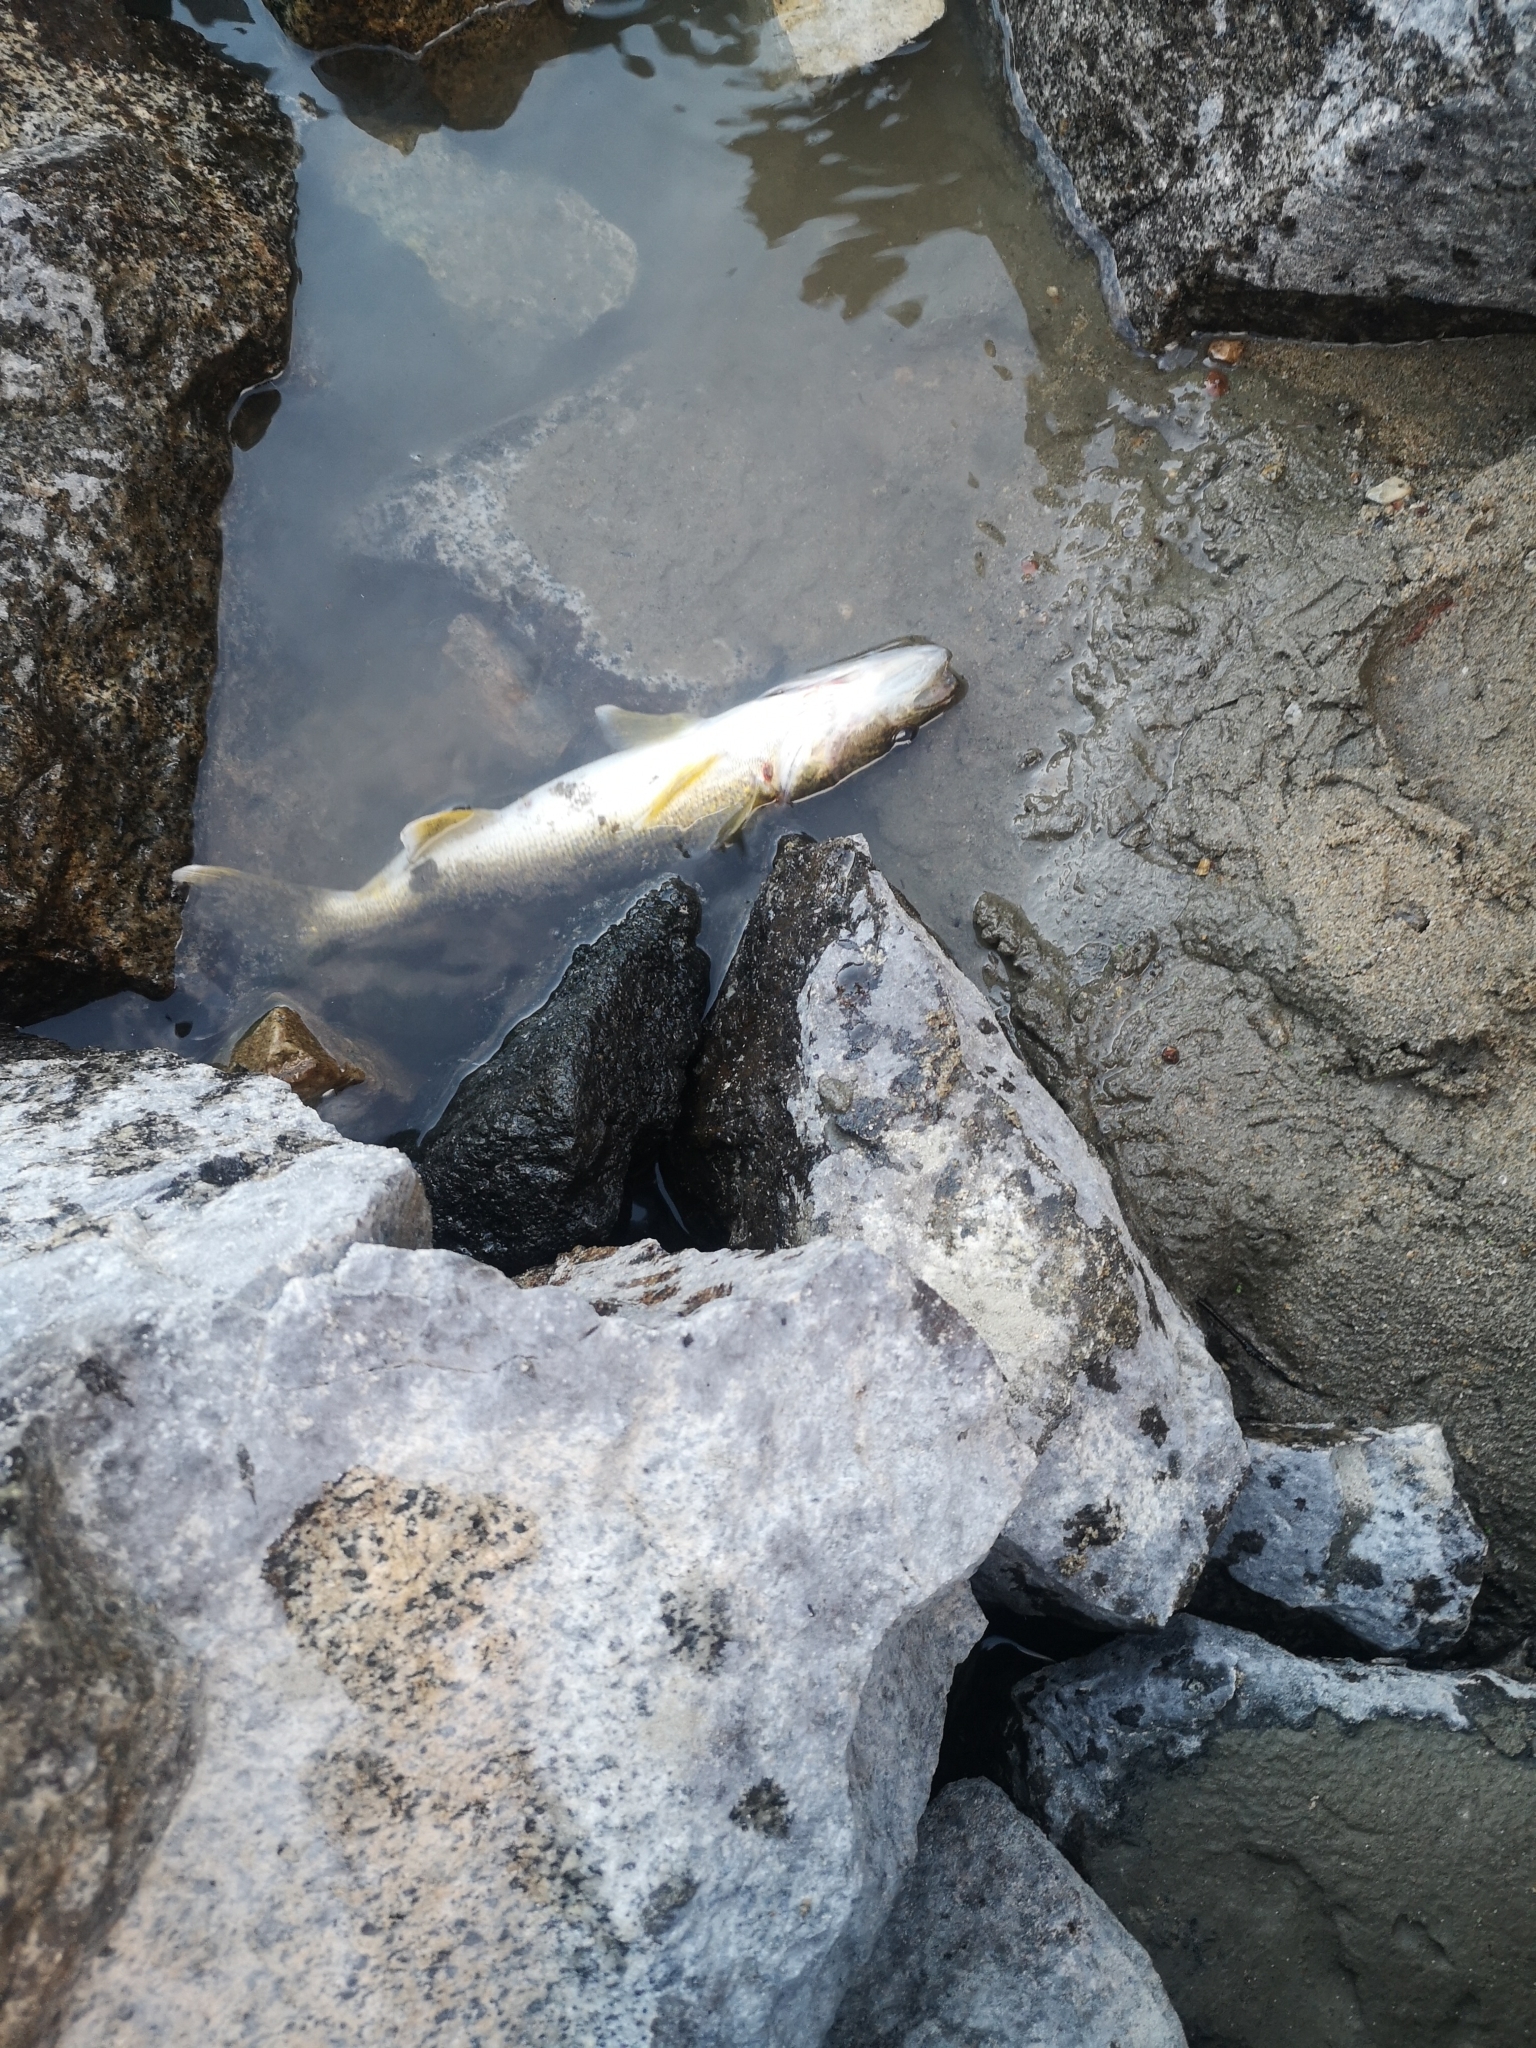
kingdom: Animalia
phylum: Chordata
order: Perciformes
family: Percidae
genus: Sander
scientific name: Sander vitreus
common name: Walleye
